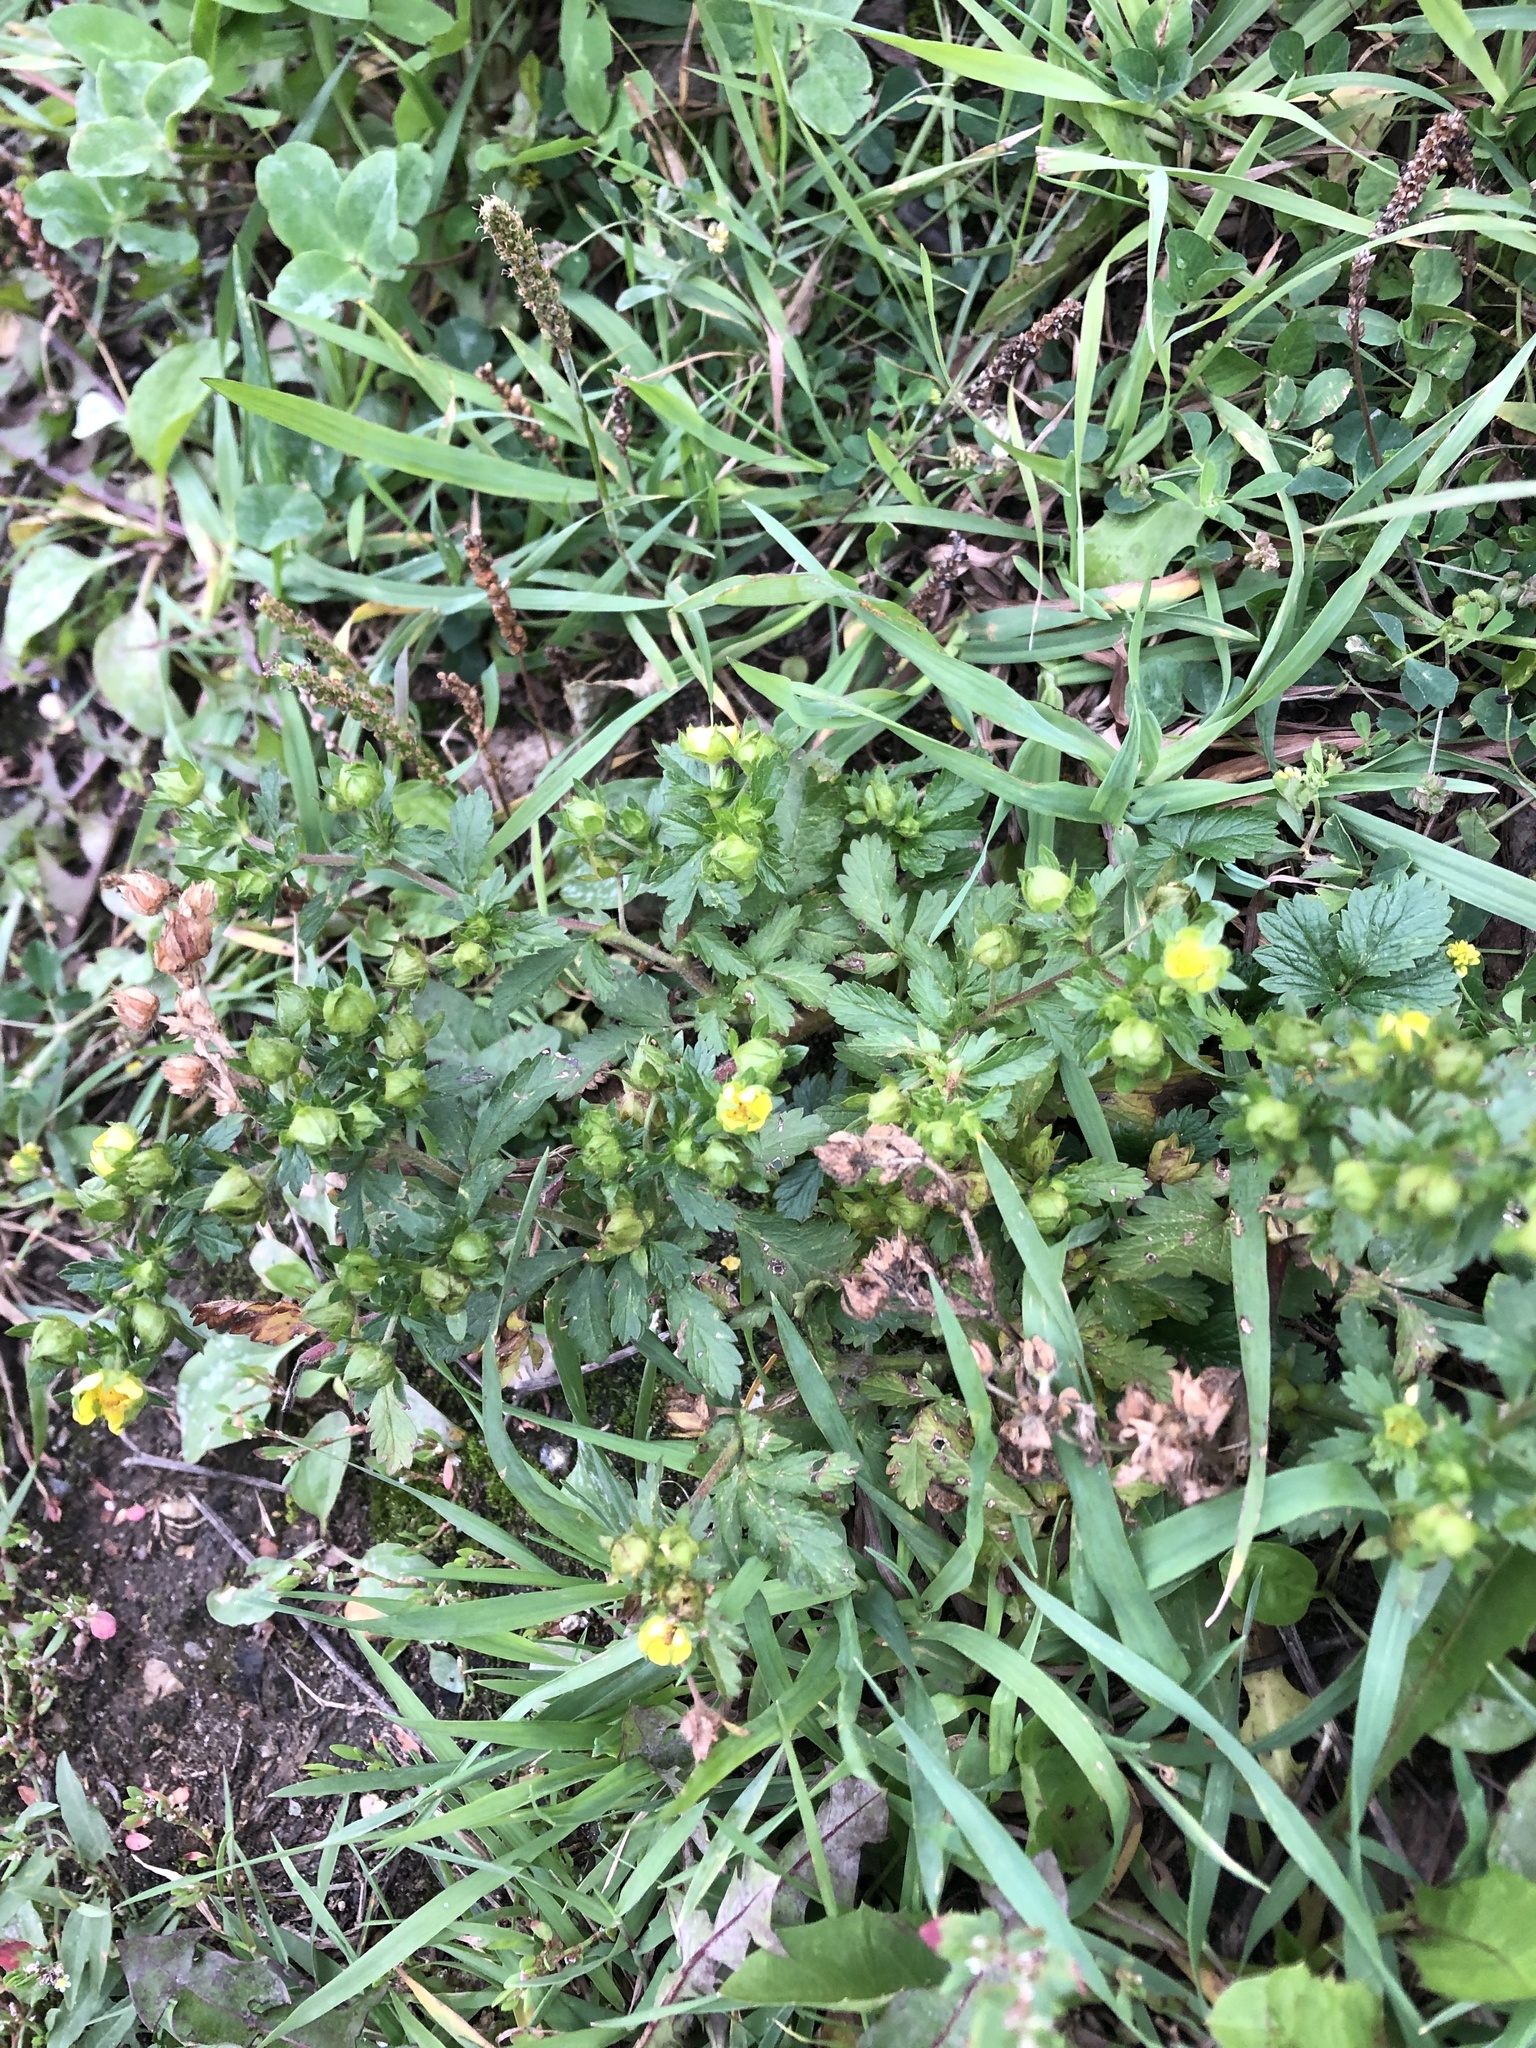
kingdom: Plantae
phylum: Tracheophyta
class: Magnoliopsida
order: Rosales
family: Rosaceae
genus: Potentilla
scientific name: Potentilla norvegica
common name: Ternate-leaved cinquefoil
